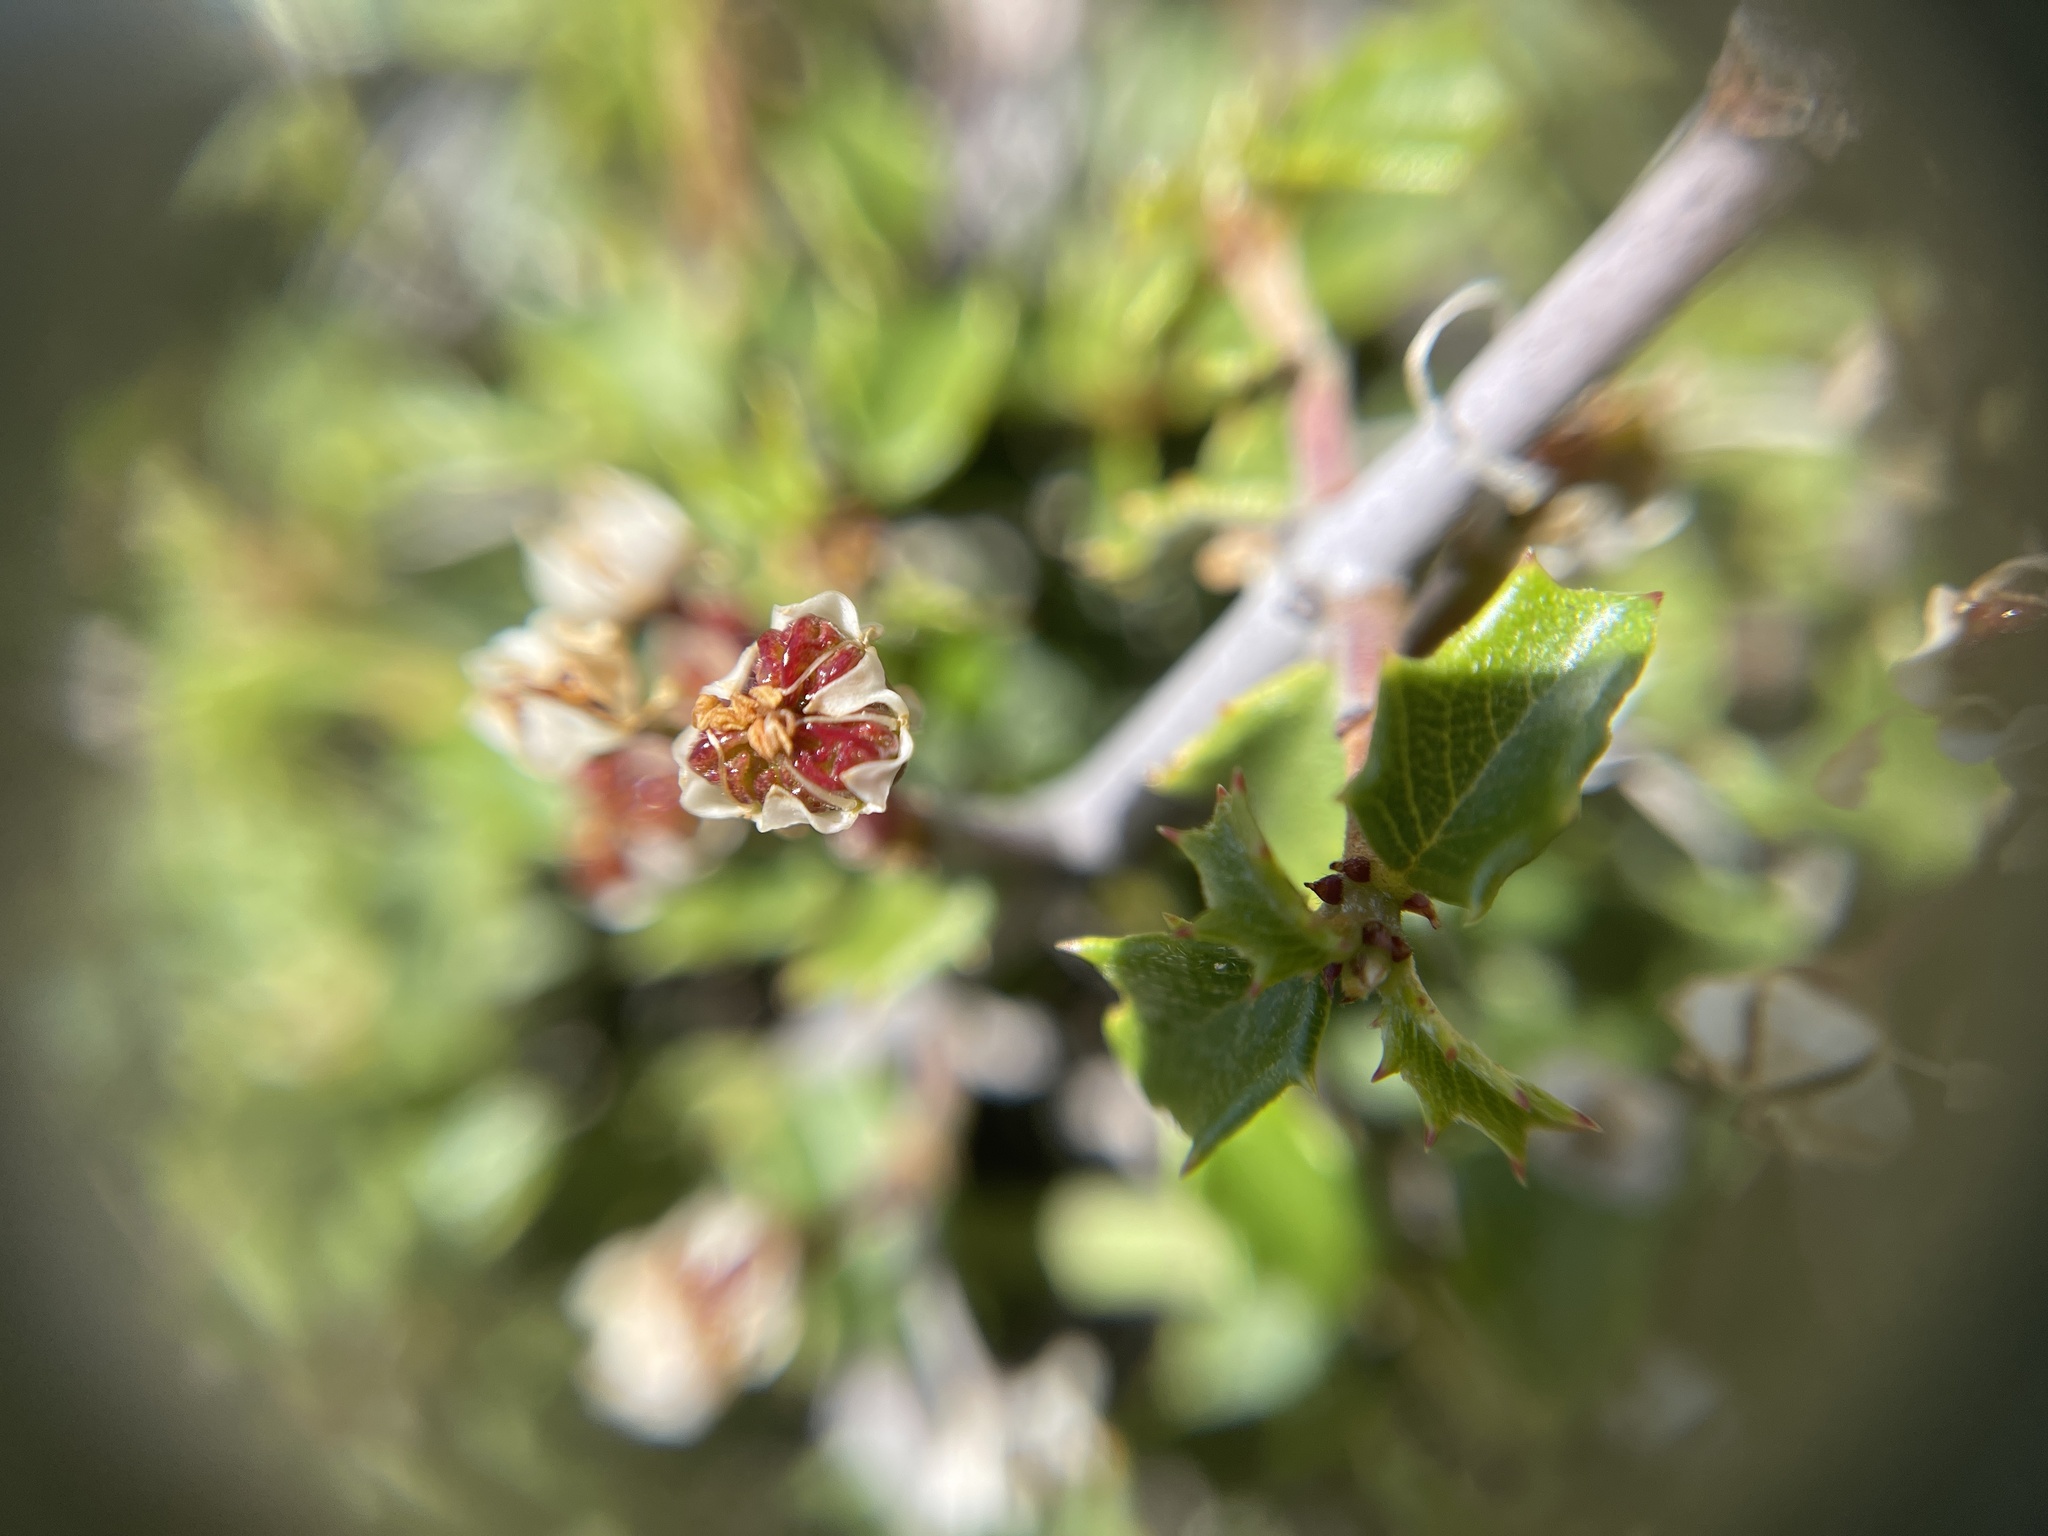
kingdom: Plantae
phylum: Tracheophyta
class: Magnoliopsida
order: Rosales
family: Rhamnaceae
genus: Ceanothus
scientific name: Ceanothus jepsonii
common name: Muskbrush
